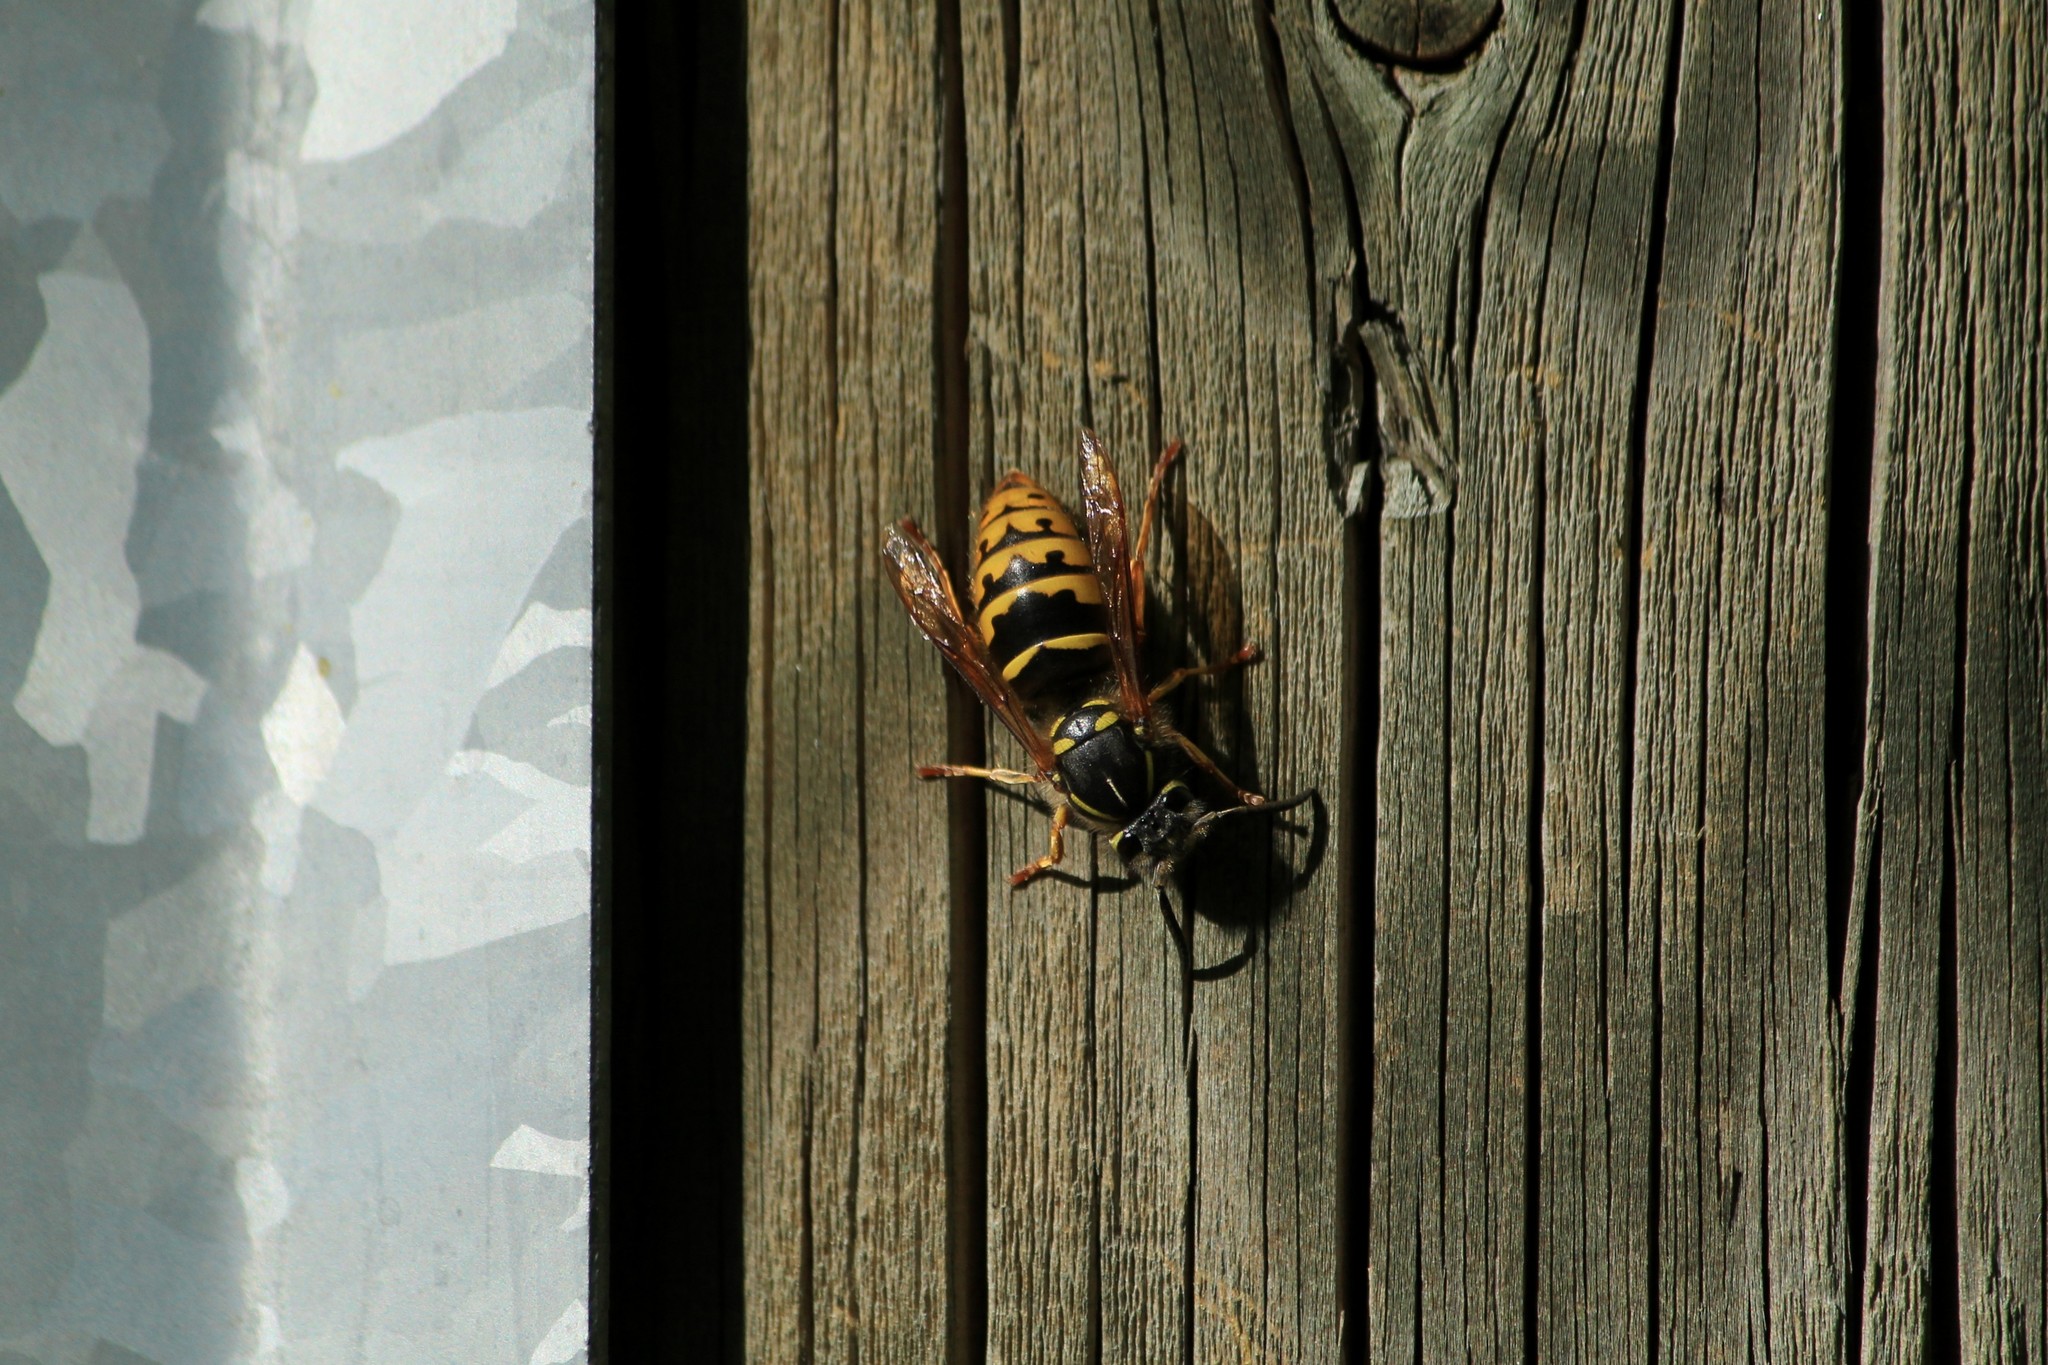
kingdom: Animalia
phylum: Arthropoda
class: Insecta
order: Hymenoptera
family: Vespidae
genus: Vespula
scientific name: Vespula vulgaris
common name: Common wasp
